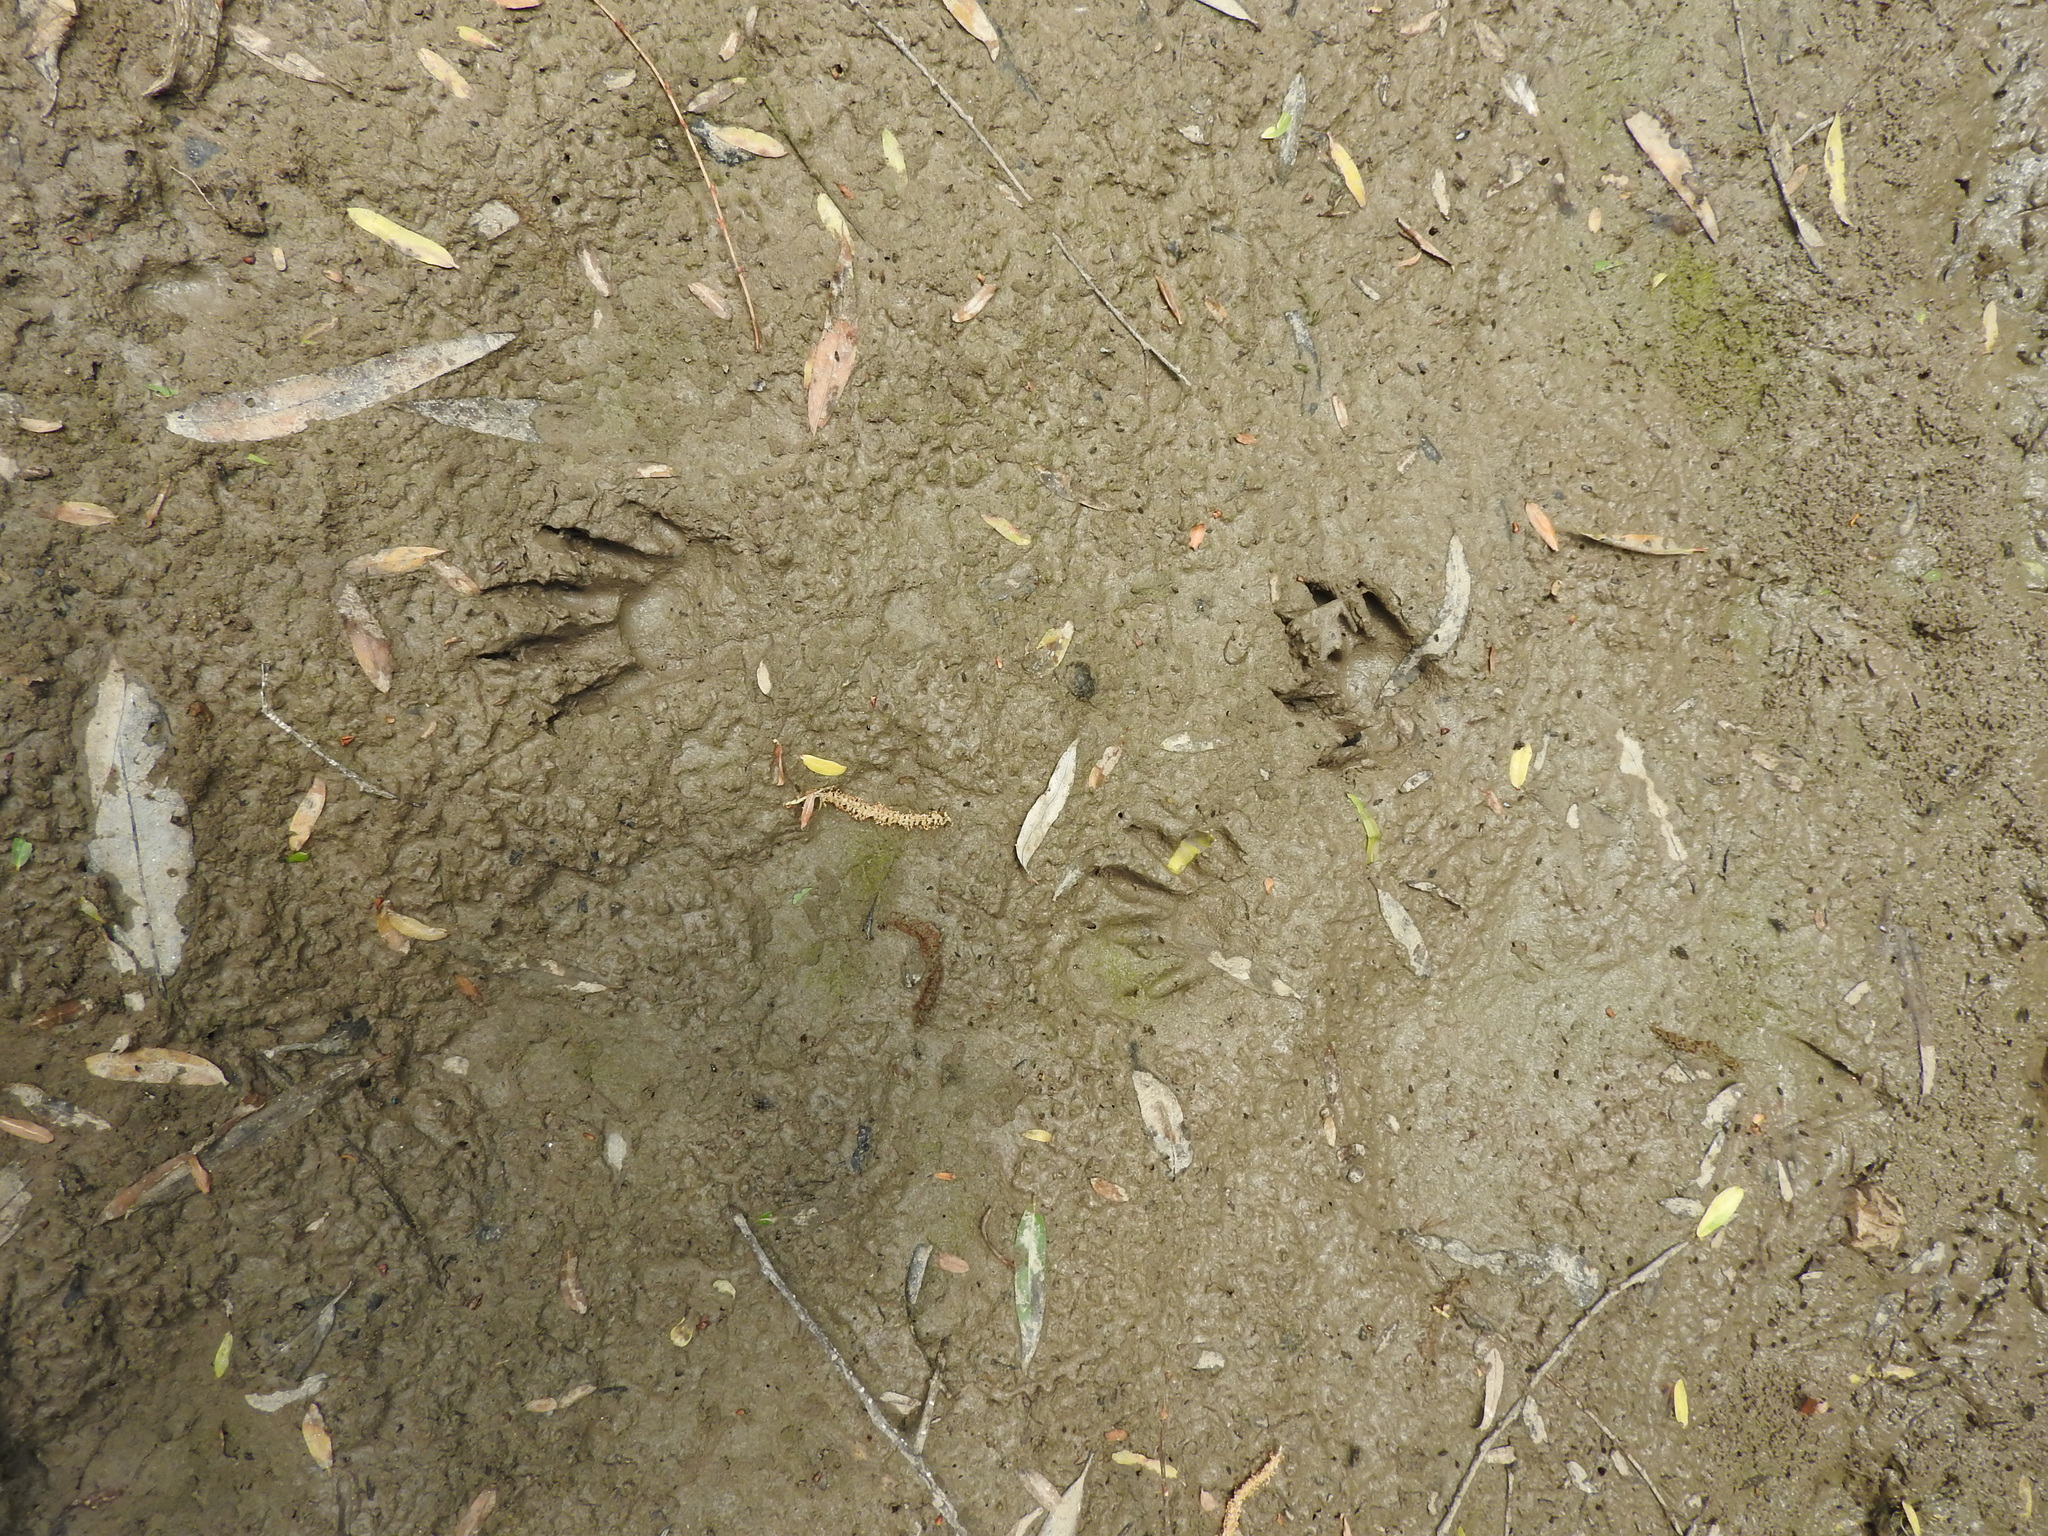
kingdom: Animalia
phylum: Chordata
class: Mammalia
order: Carnivora
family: Procyonidae
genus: Procyon
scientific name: Procyon lotor
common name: Raccoon
